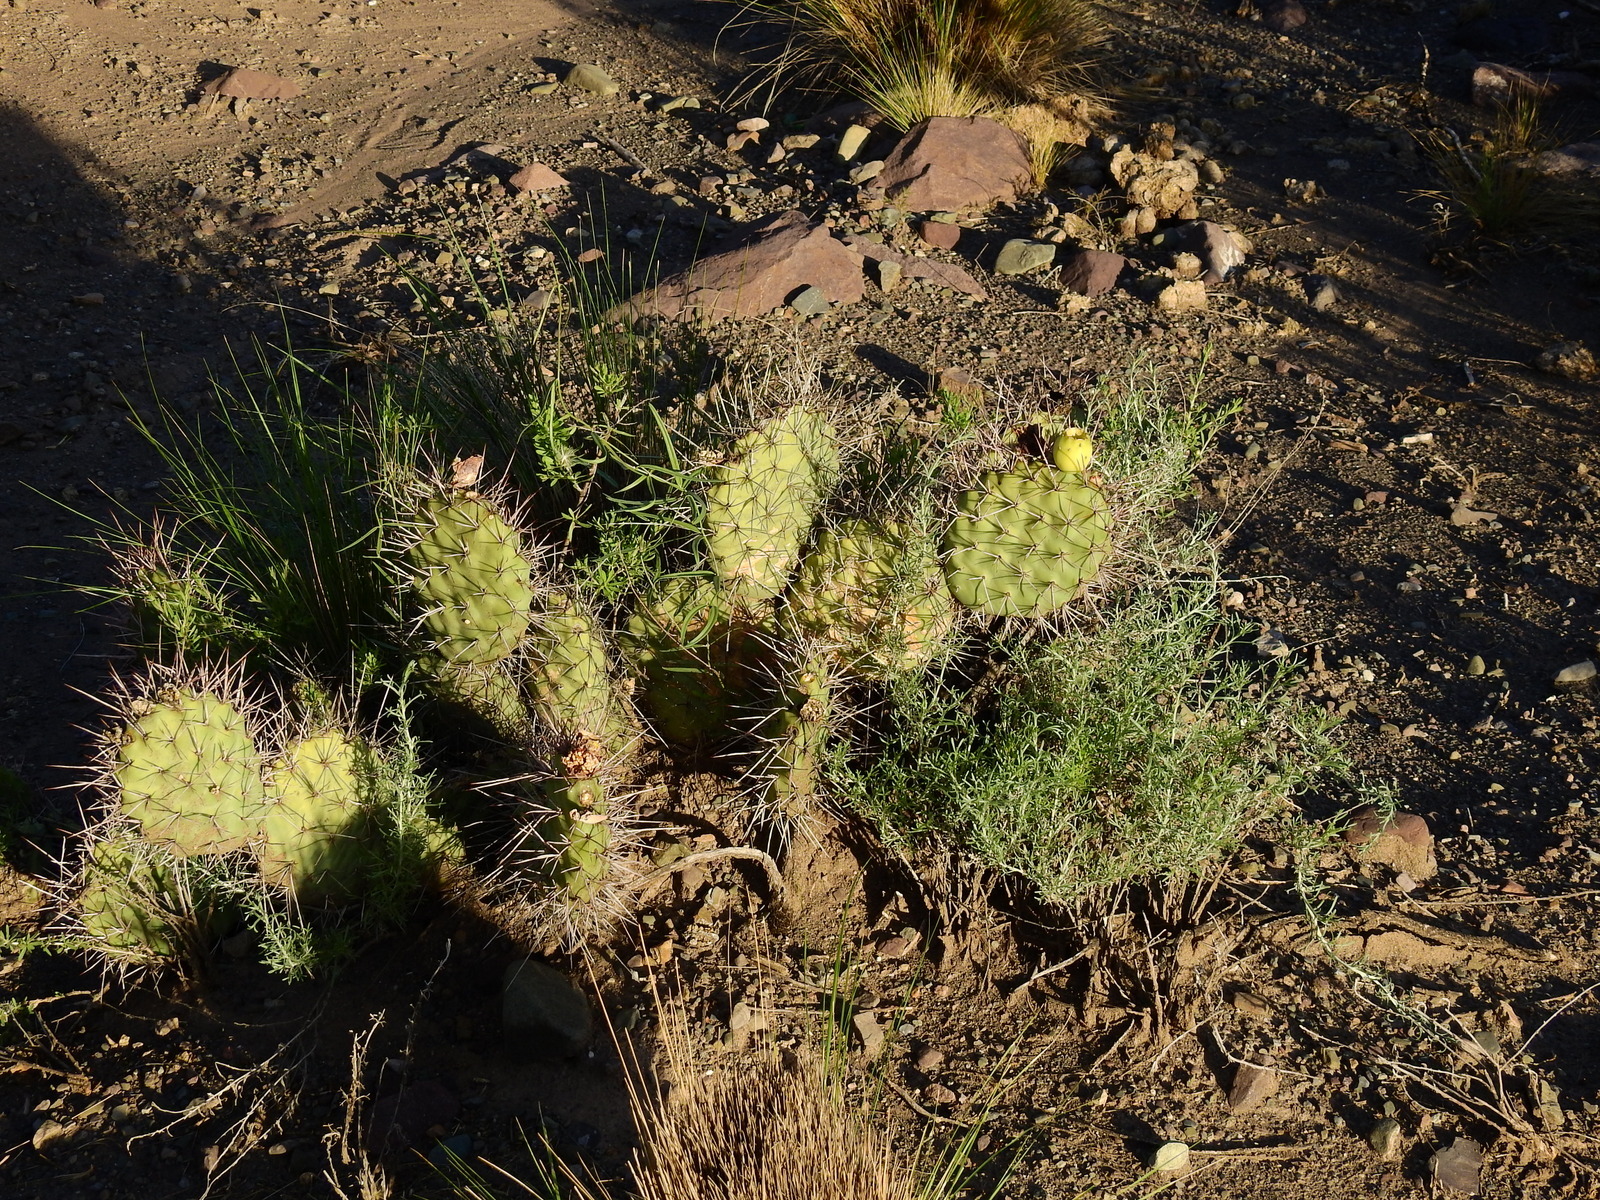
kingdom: Plantae
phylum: Tracheophyta
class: Magnoliopsida
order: Caryophyllales
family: Cactaceae
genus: Opuntia
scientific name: Opuntia sulphurea
